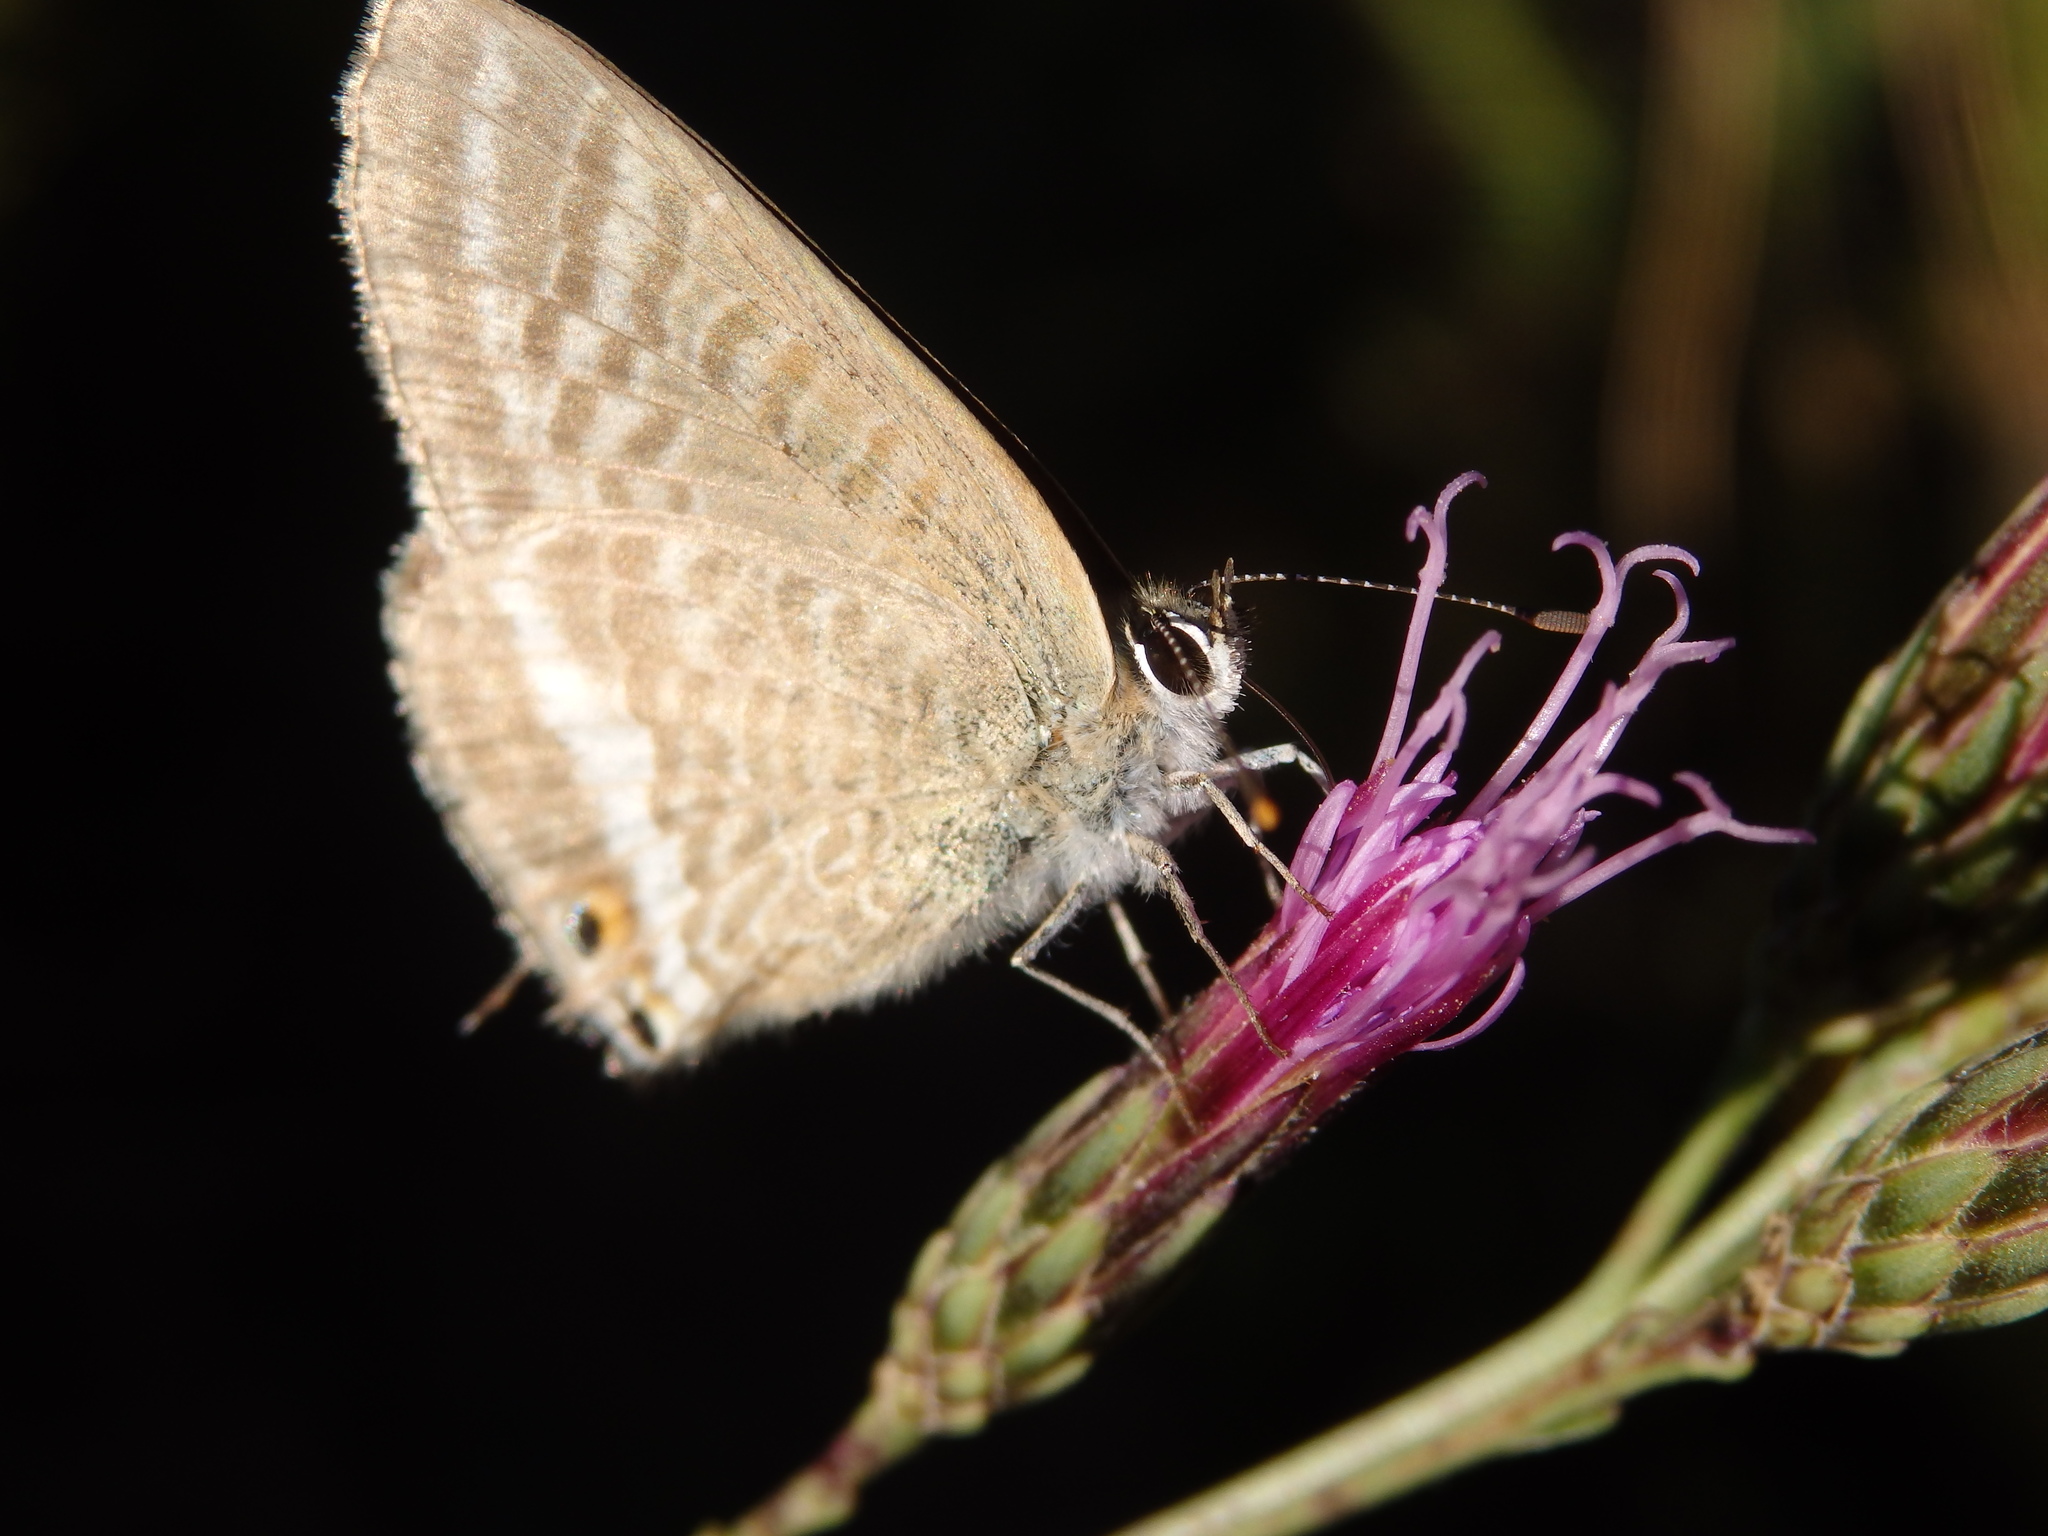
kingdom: Animalia
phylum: Arthropoda
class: Insecta
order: Lepidoptera
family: Lycaenidae
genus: Lampides
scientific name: Lampides boeticus
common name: Long-tailed blue
